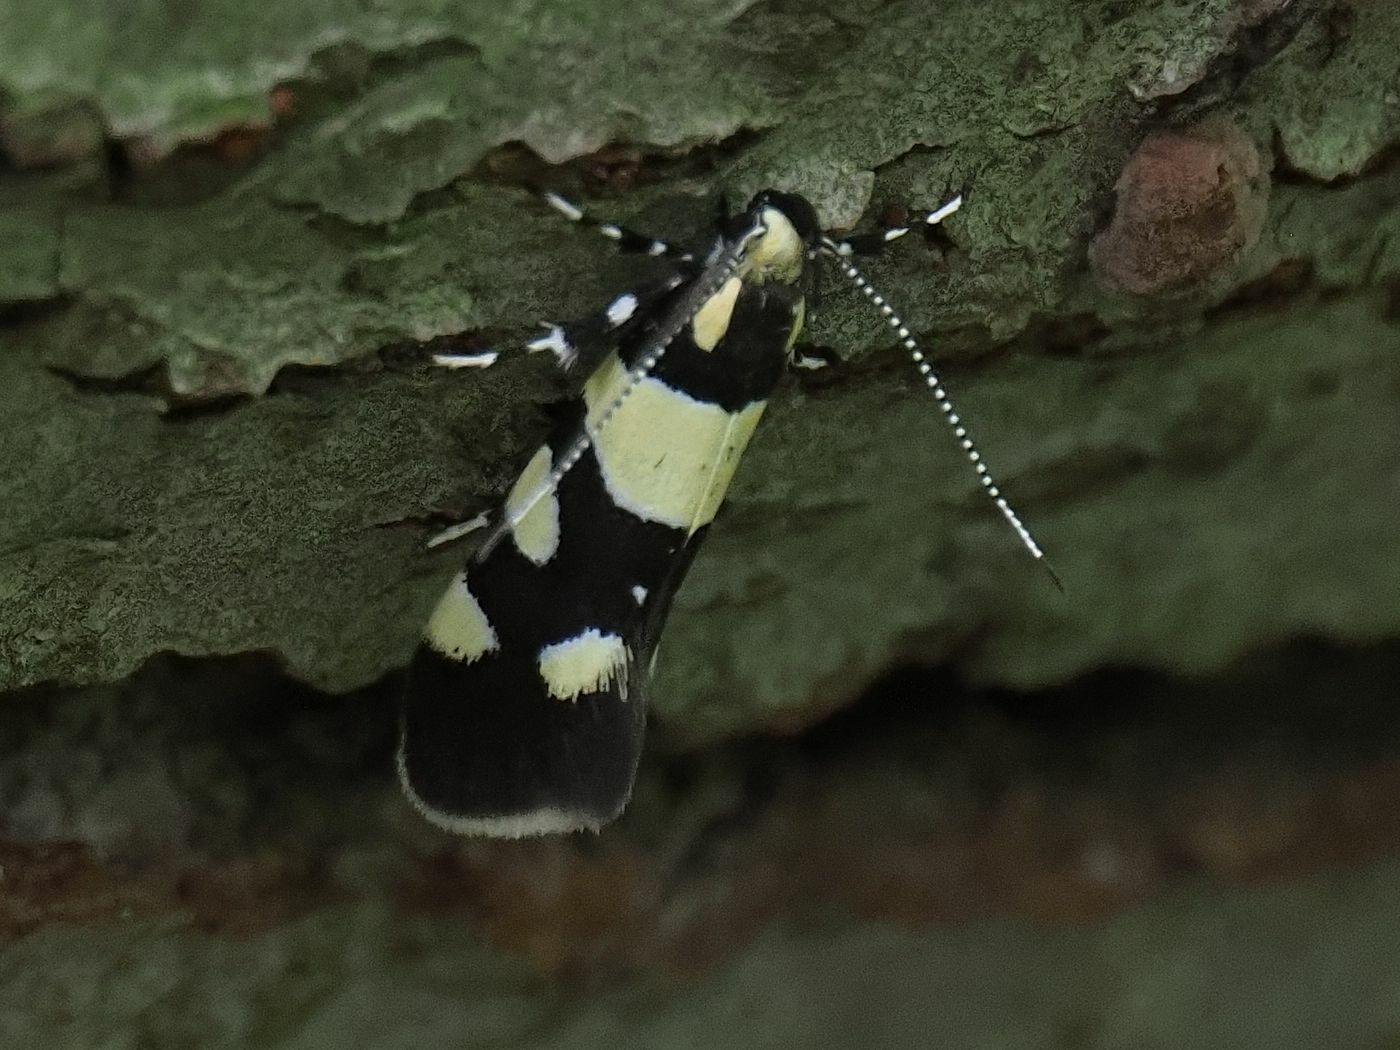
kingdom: Animalia
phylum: Arthropoda
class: Insecta
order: Lepidoptera
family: Oecophoridae
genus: Schiffermuelleria
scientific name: Schiffermuelleria amasiella
